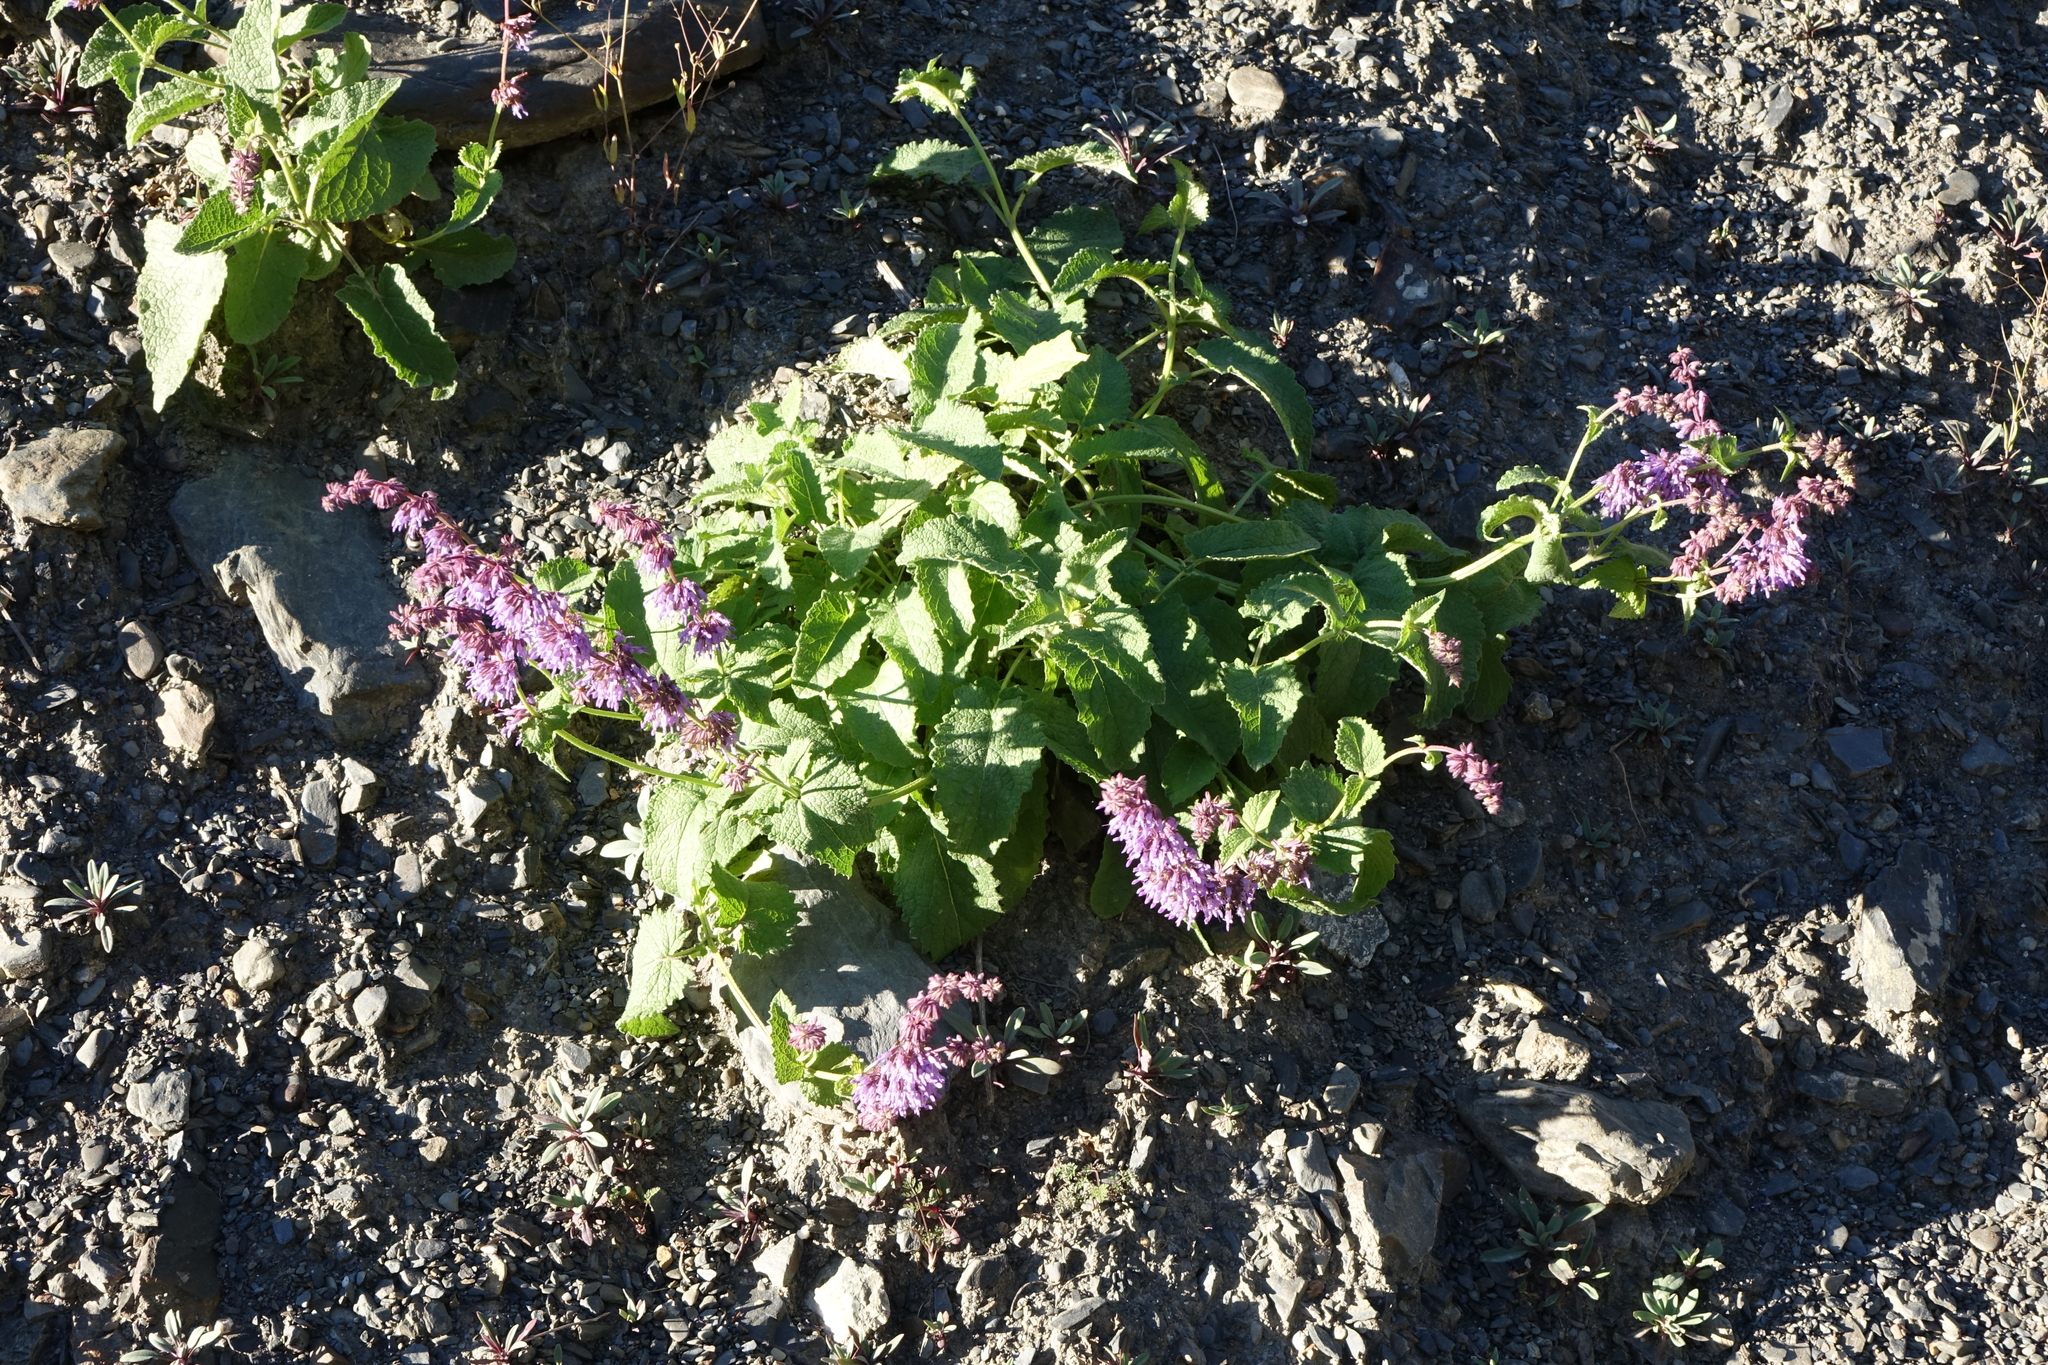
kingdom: Plantae
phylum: Tracheophyta
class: Magnoliopsida
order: Lamiales
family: Lamiaceae
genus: Salvia
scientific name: Salvia verticillata
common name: Whorled clary
